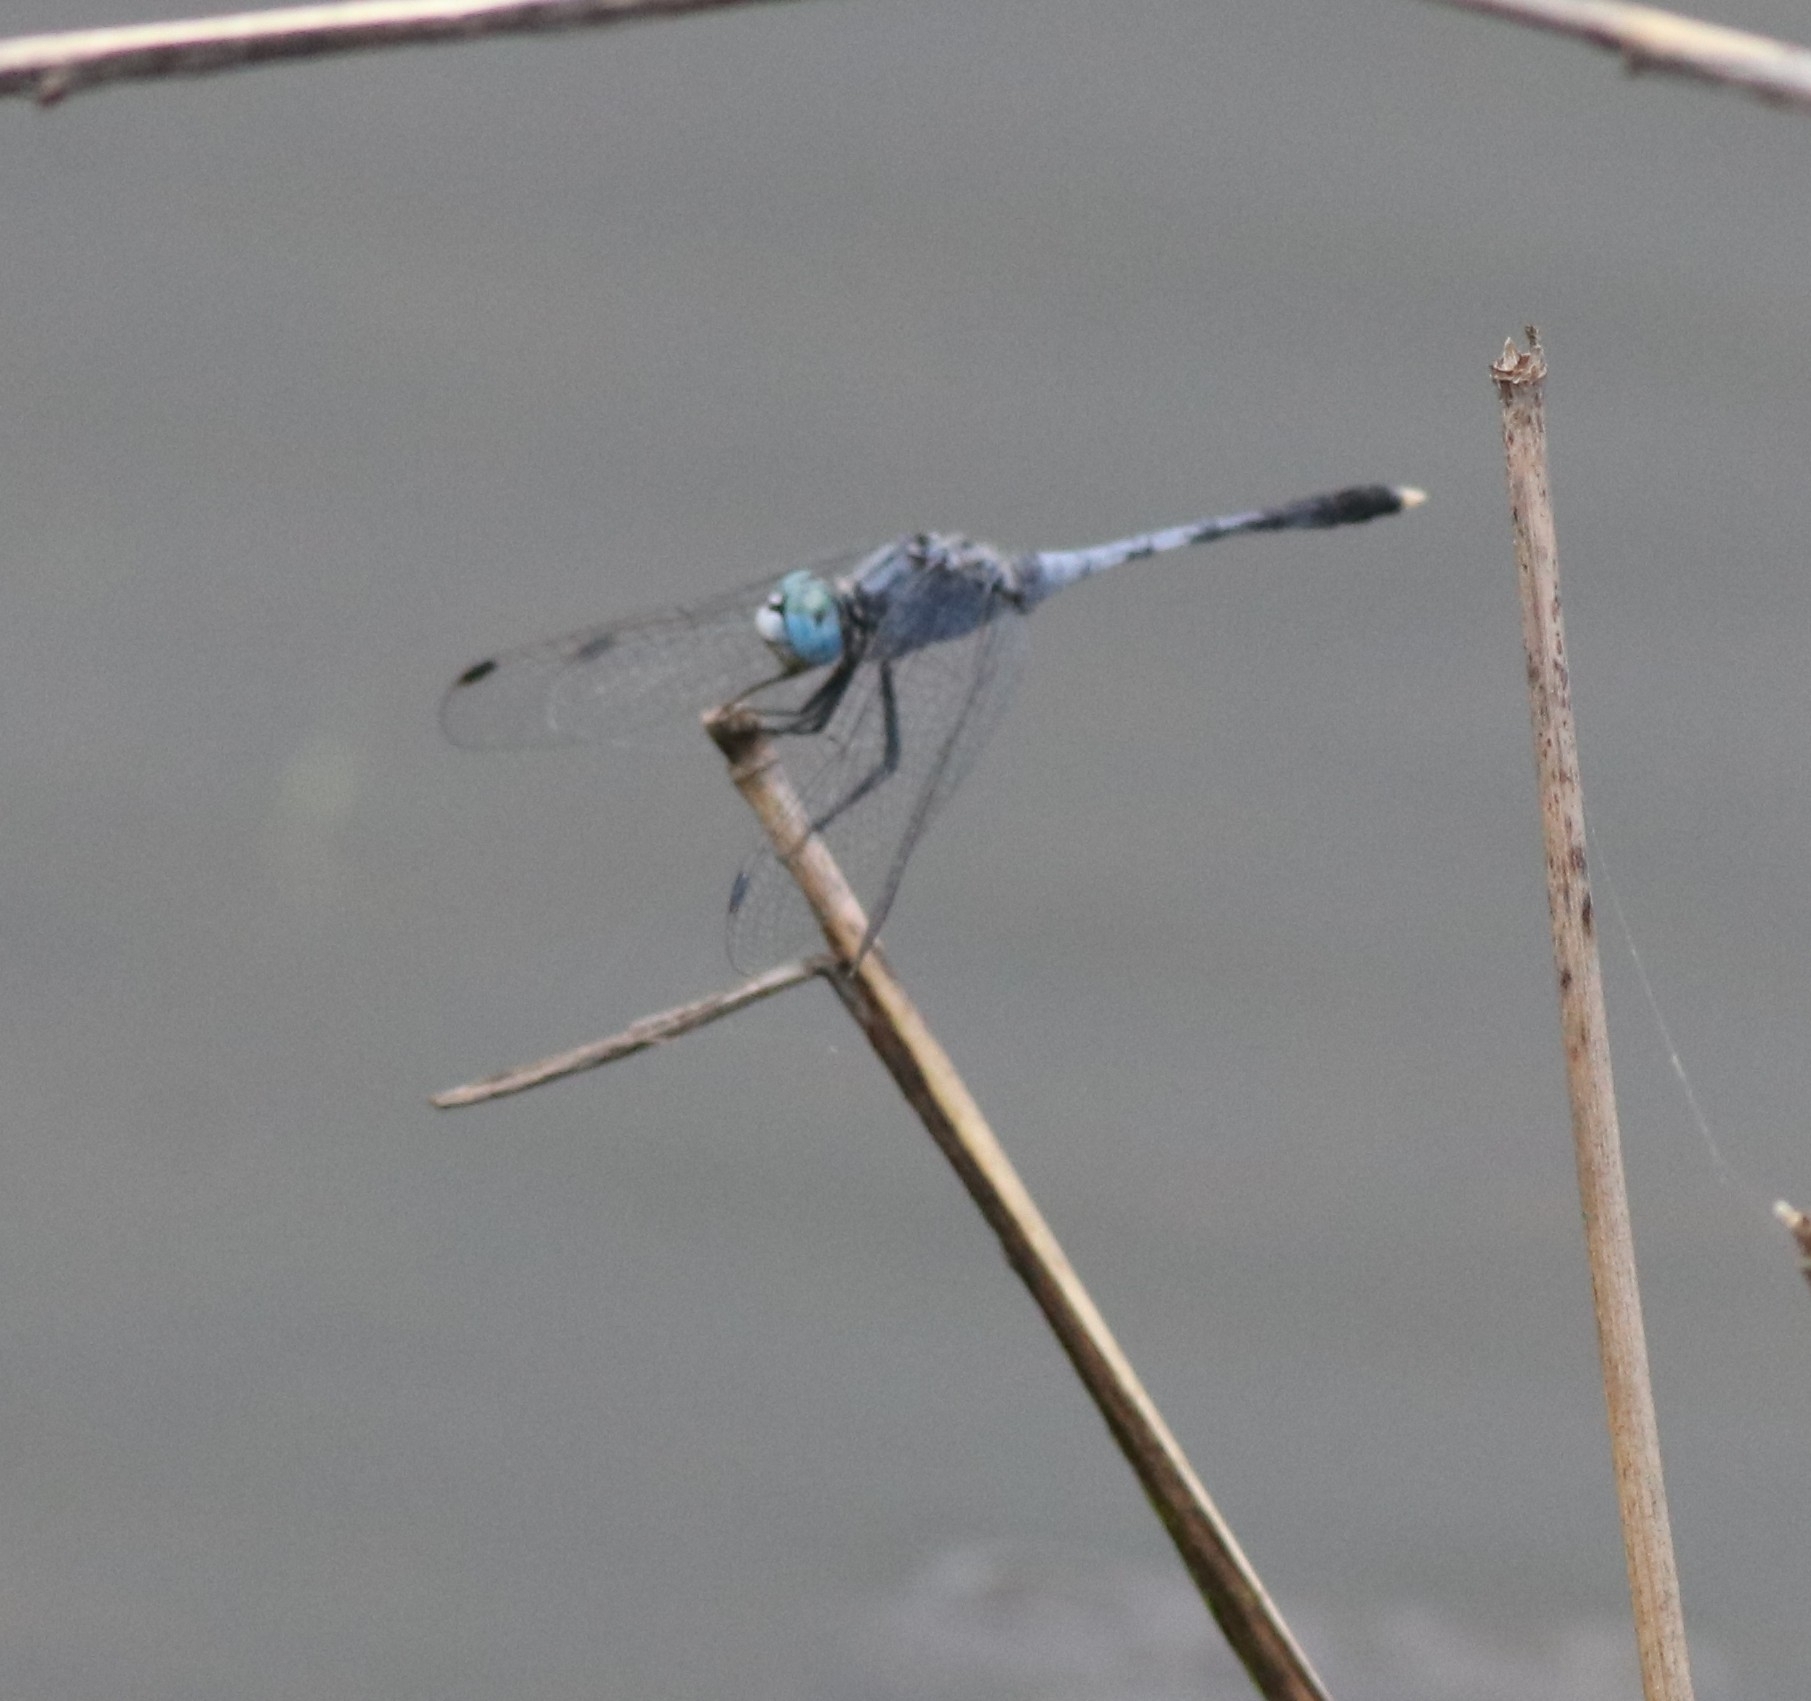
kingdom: Animalia
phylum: Arthropoda
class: Insecta
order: Odonata
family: Libellulidae
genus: Diplacodes
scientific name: Diplacodes trivialis
